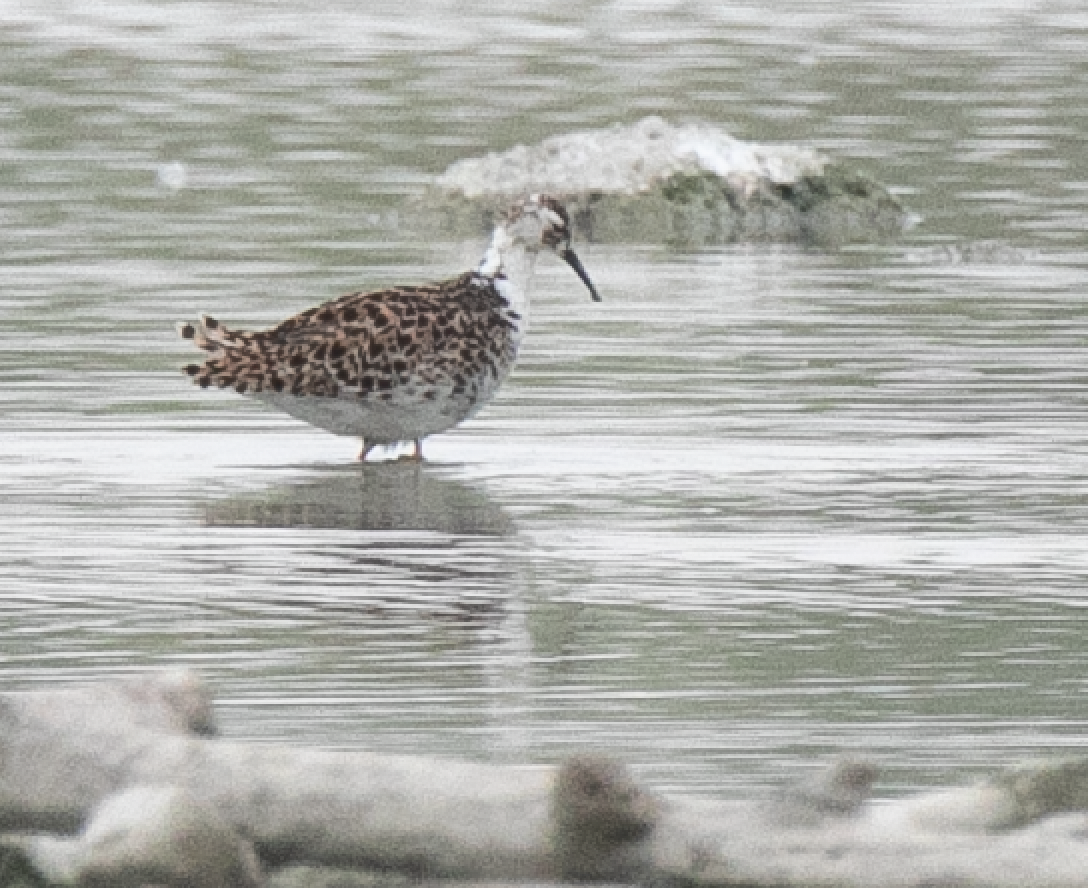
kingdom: Animalia
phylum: Chordata
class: Aves
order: Charadriiformes
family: Scolopacidae
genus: Calidris
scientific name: Calidris pugnax
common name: Ruff
